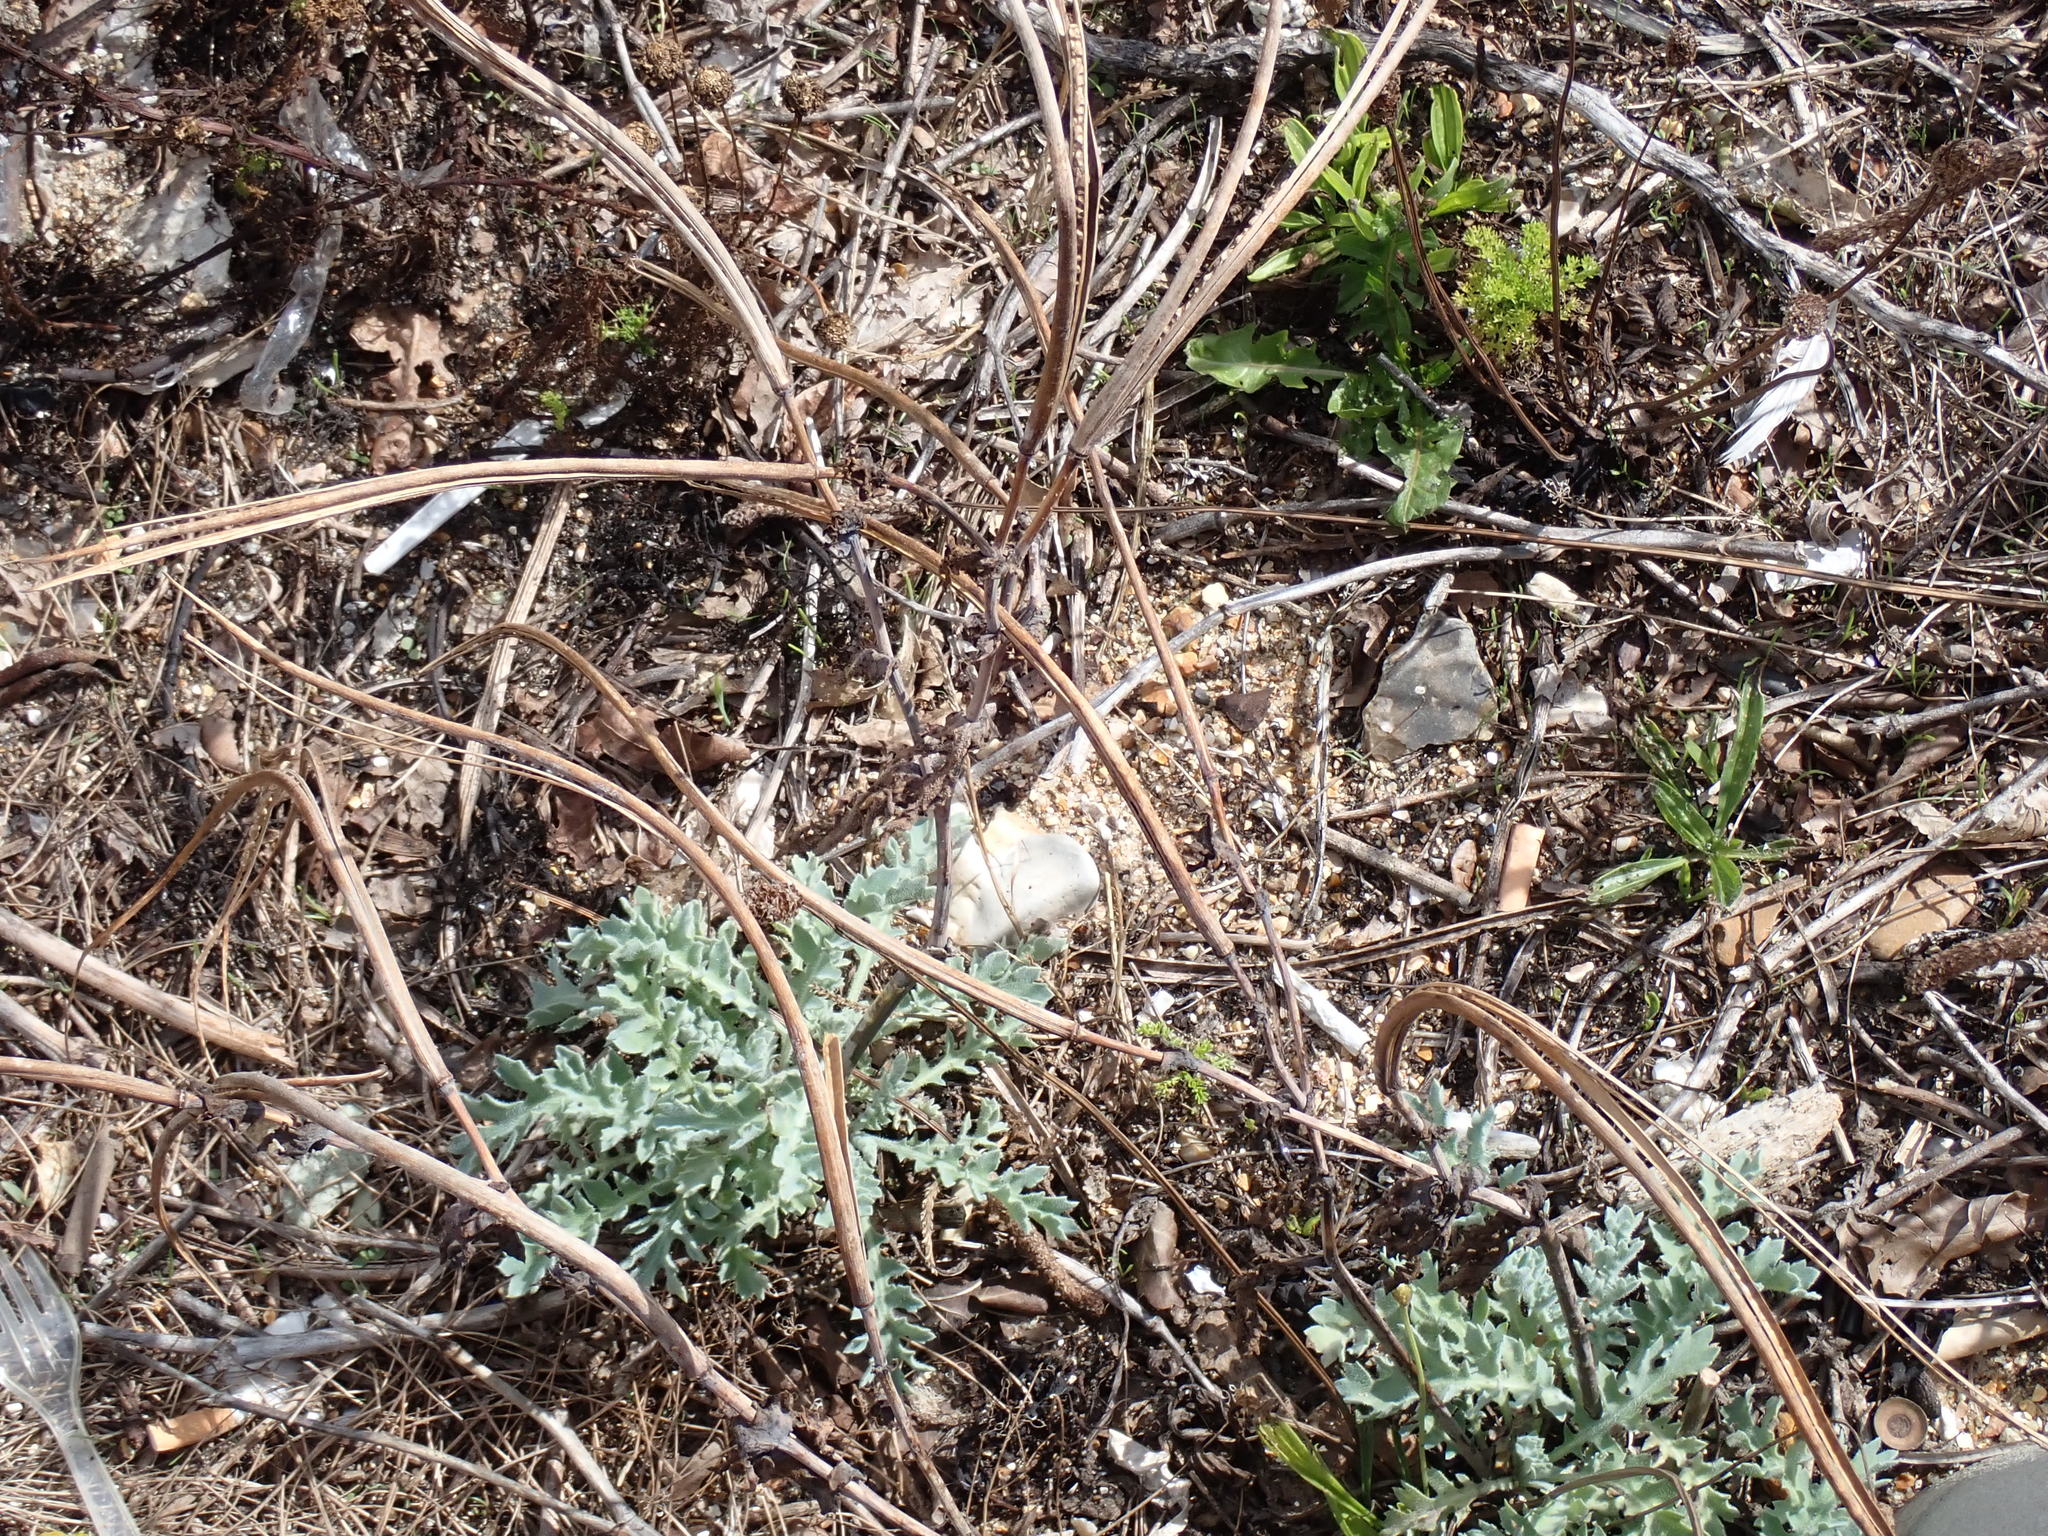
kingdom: Plantae
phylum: Tracheophyta
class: Magnoliopsida
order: Ranunculales
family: Papaveraceae
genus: Glaucium
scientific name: Glaucium flavum
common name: Yellow horned-poppy
